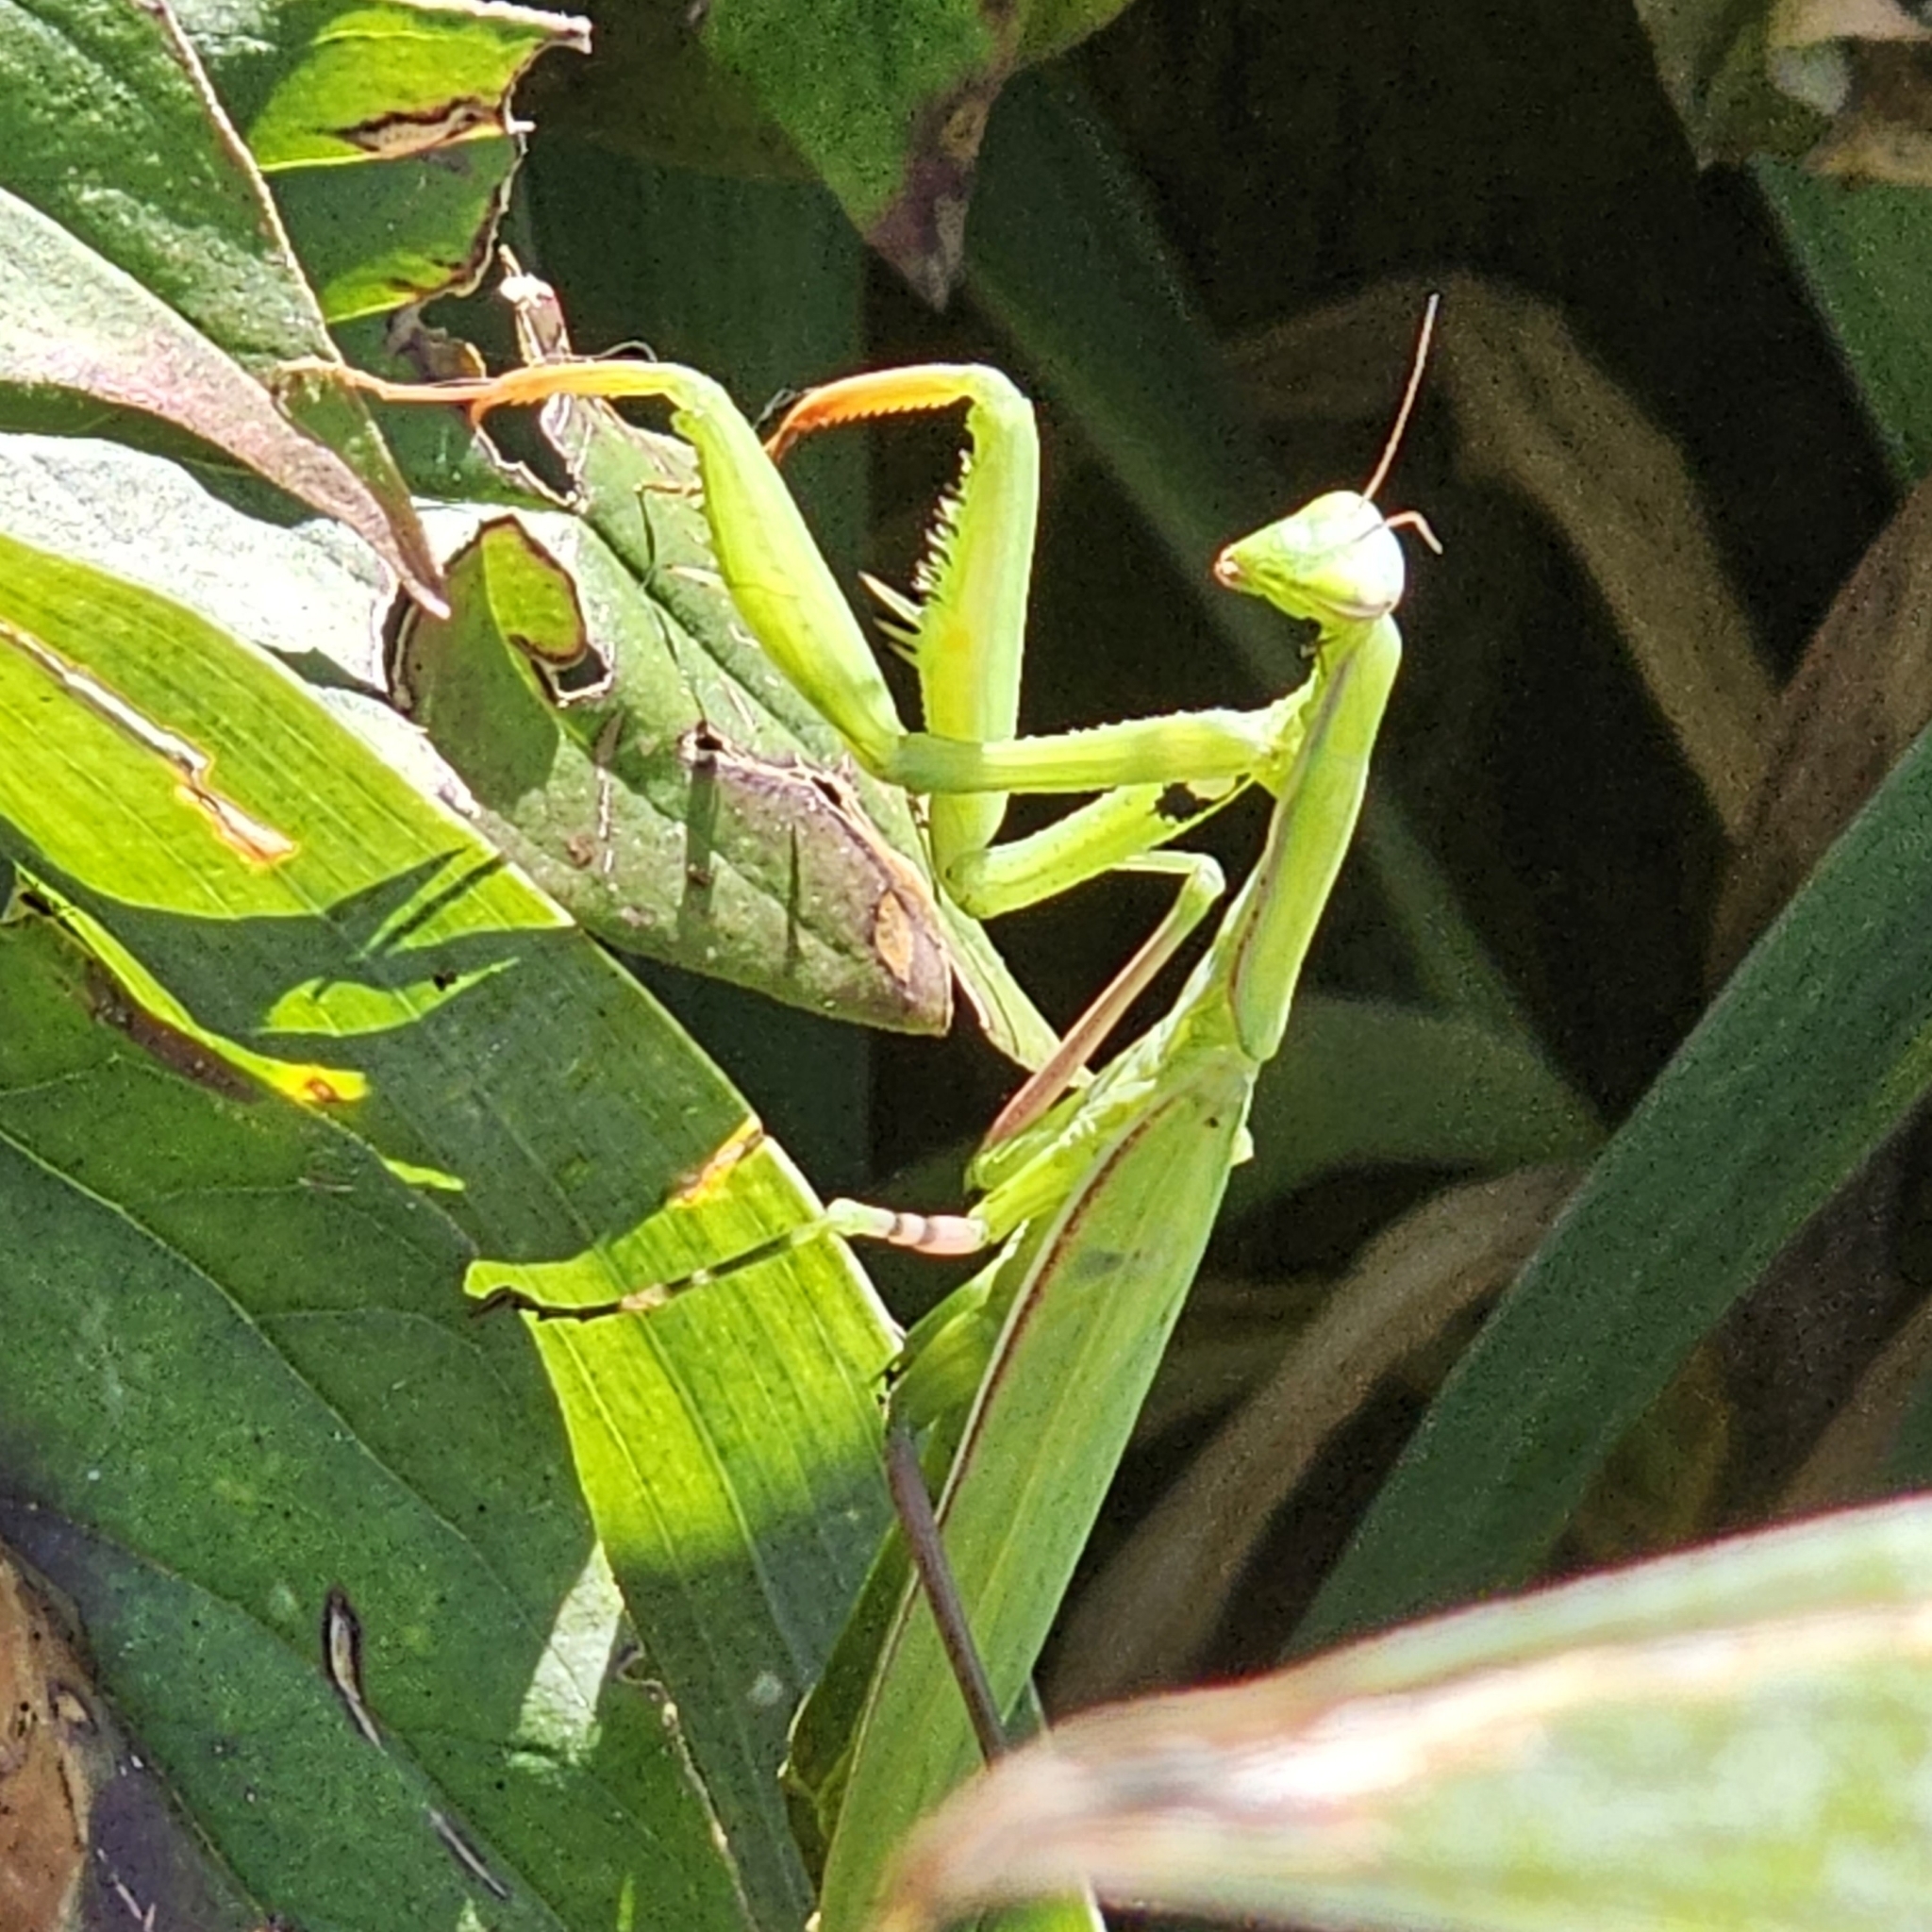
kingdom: Animalia
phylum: Arthropoda
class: Insecta
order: Mantodea
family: Mantidae
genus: Mantis
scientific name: Mantis religiosa
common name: Praying mantis
